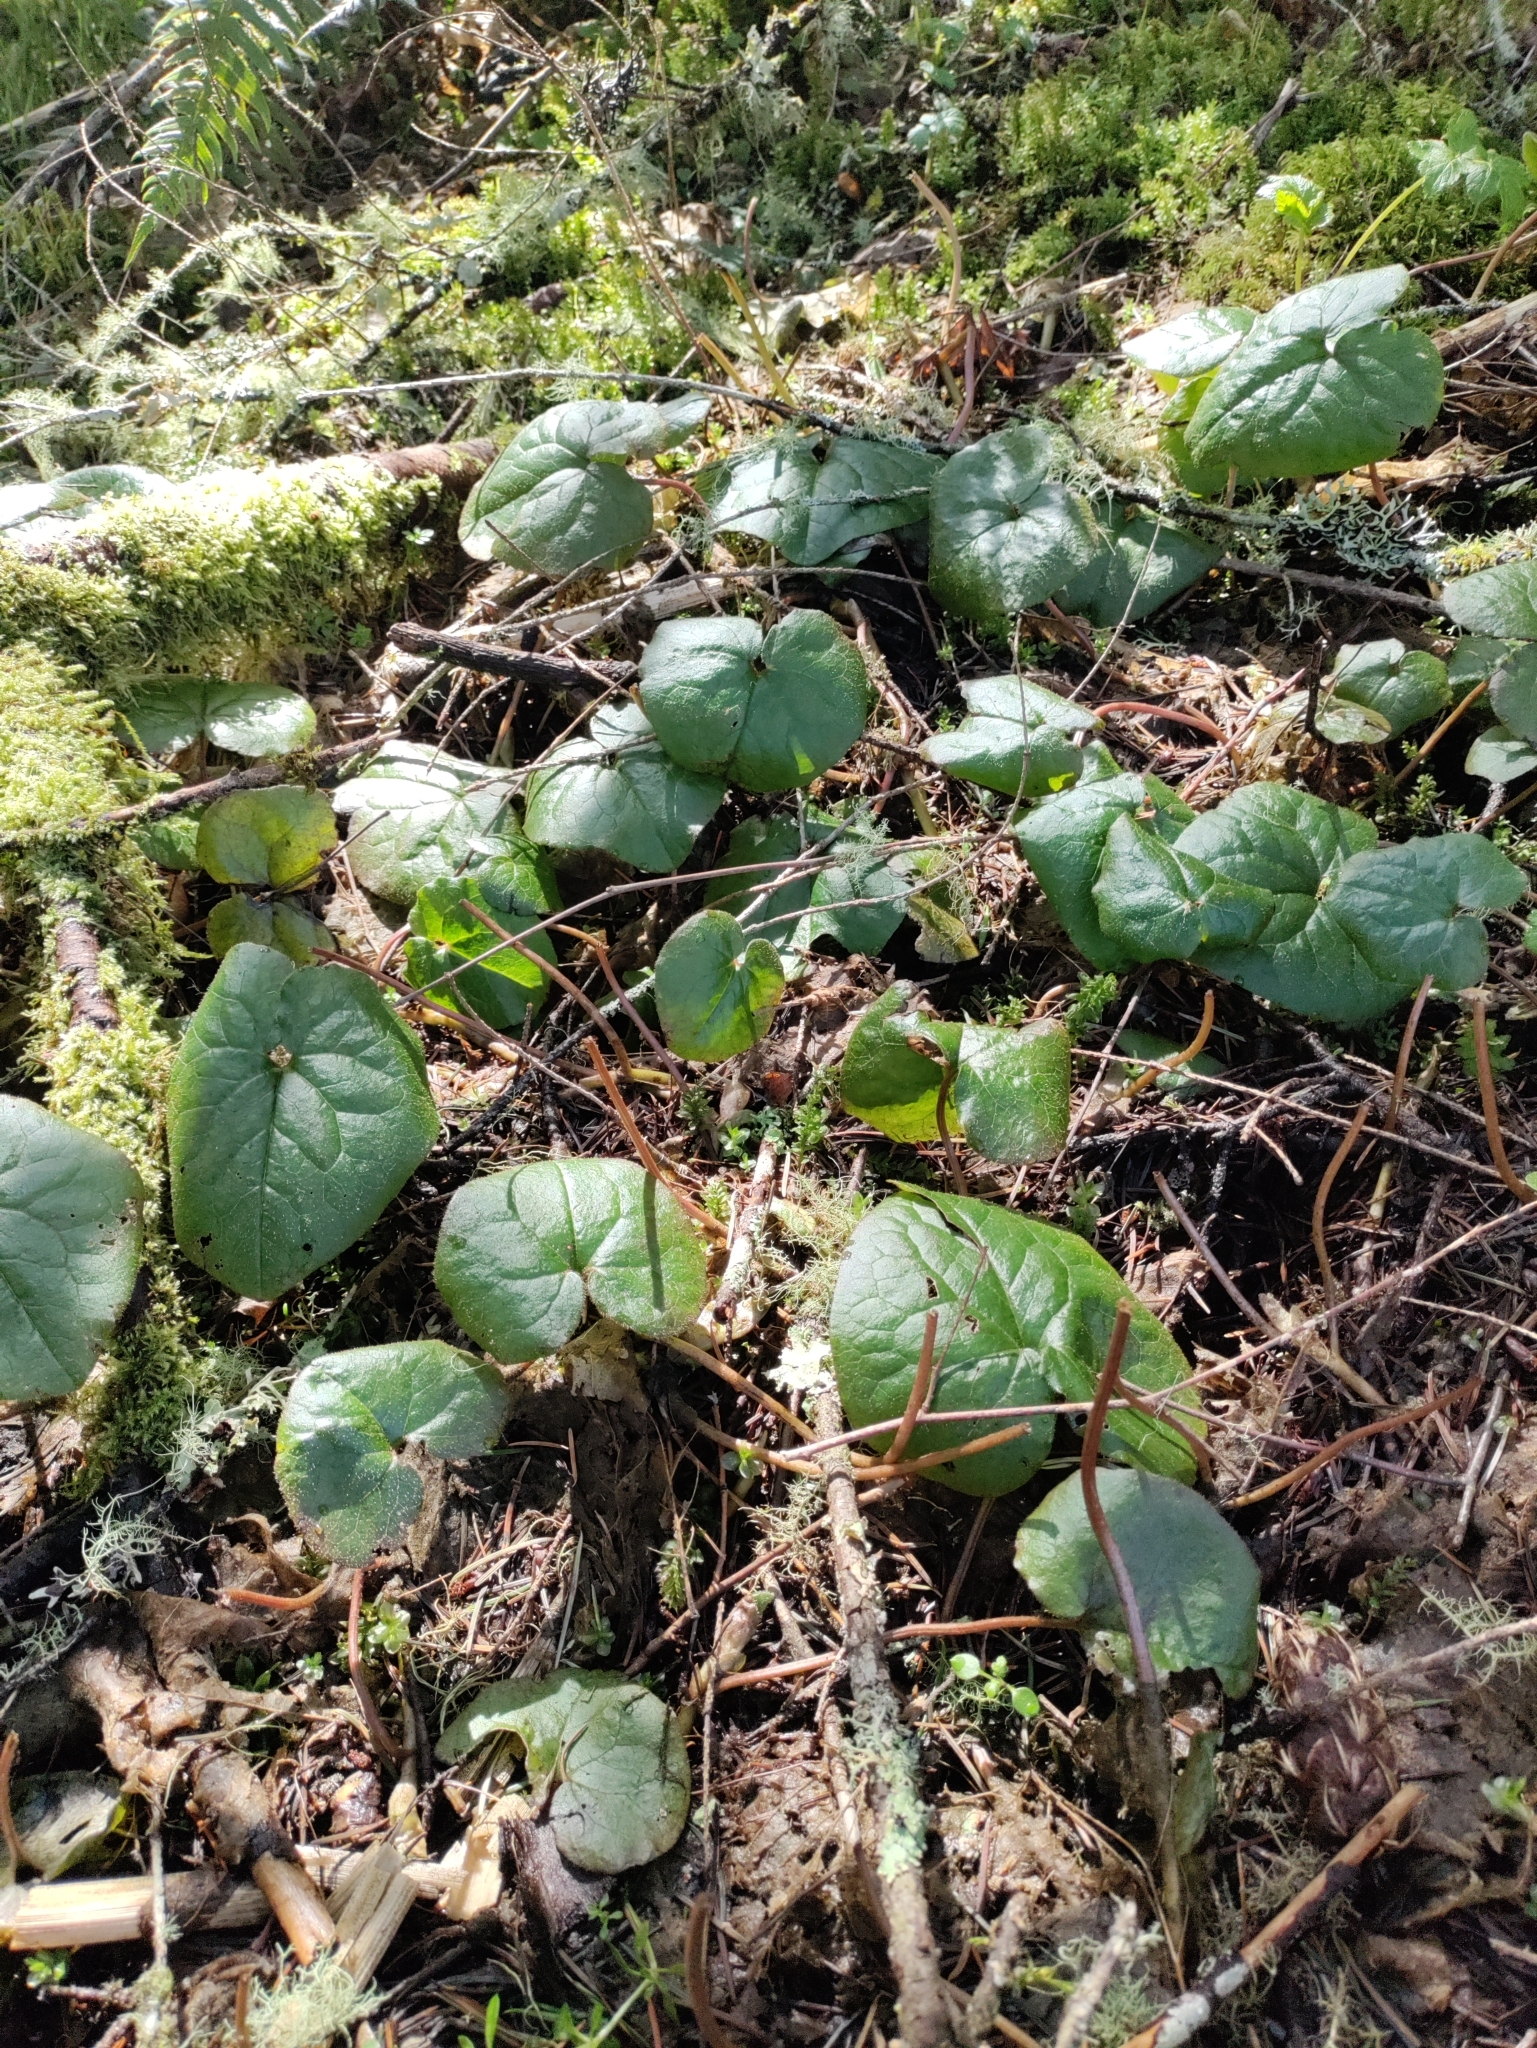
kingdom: Plantae
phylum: Tracheophyta
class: Magnoliopsida
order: Piperales
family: Aristolochiaceae
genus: Asarum
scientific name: Asarum caudatum
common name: Wild ginger
